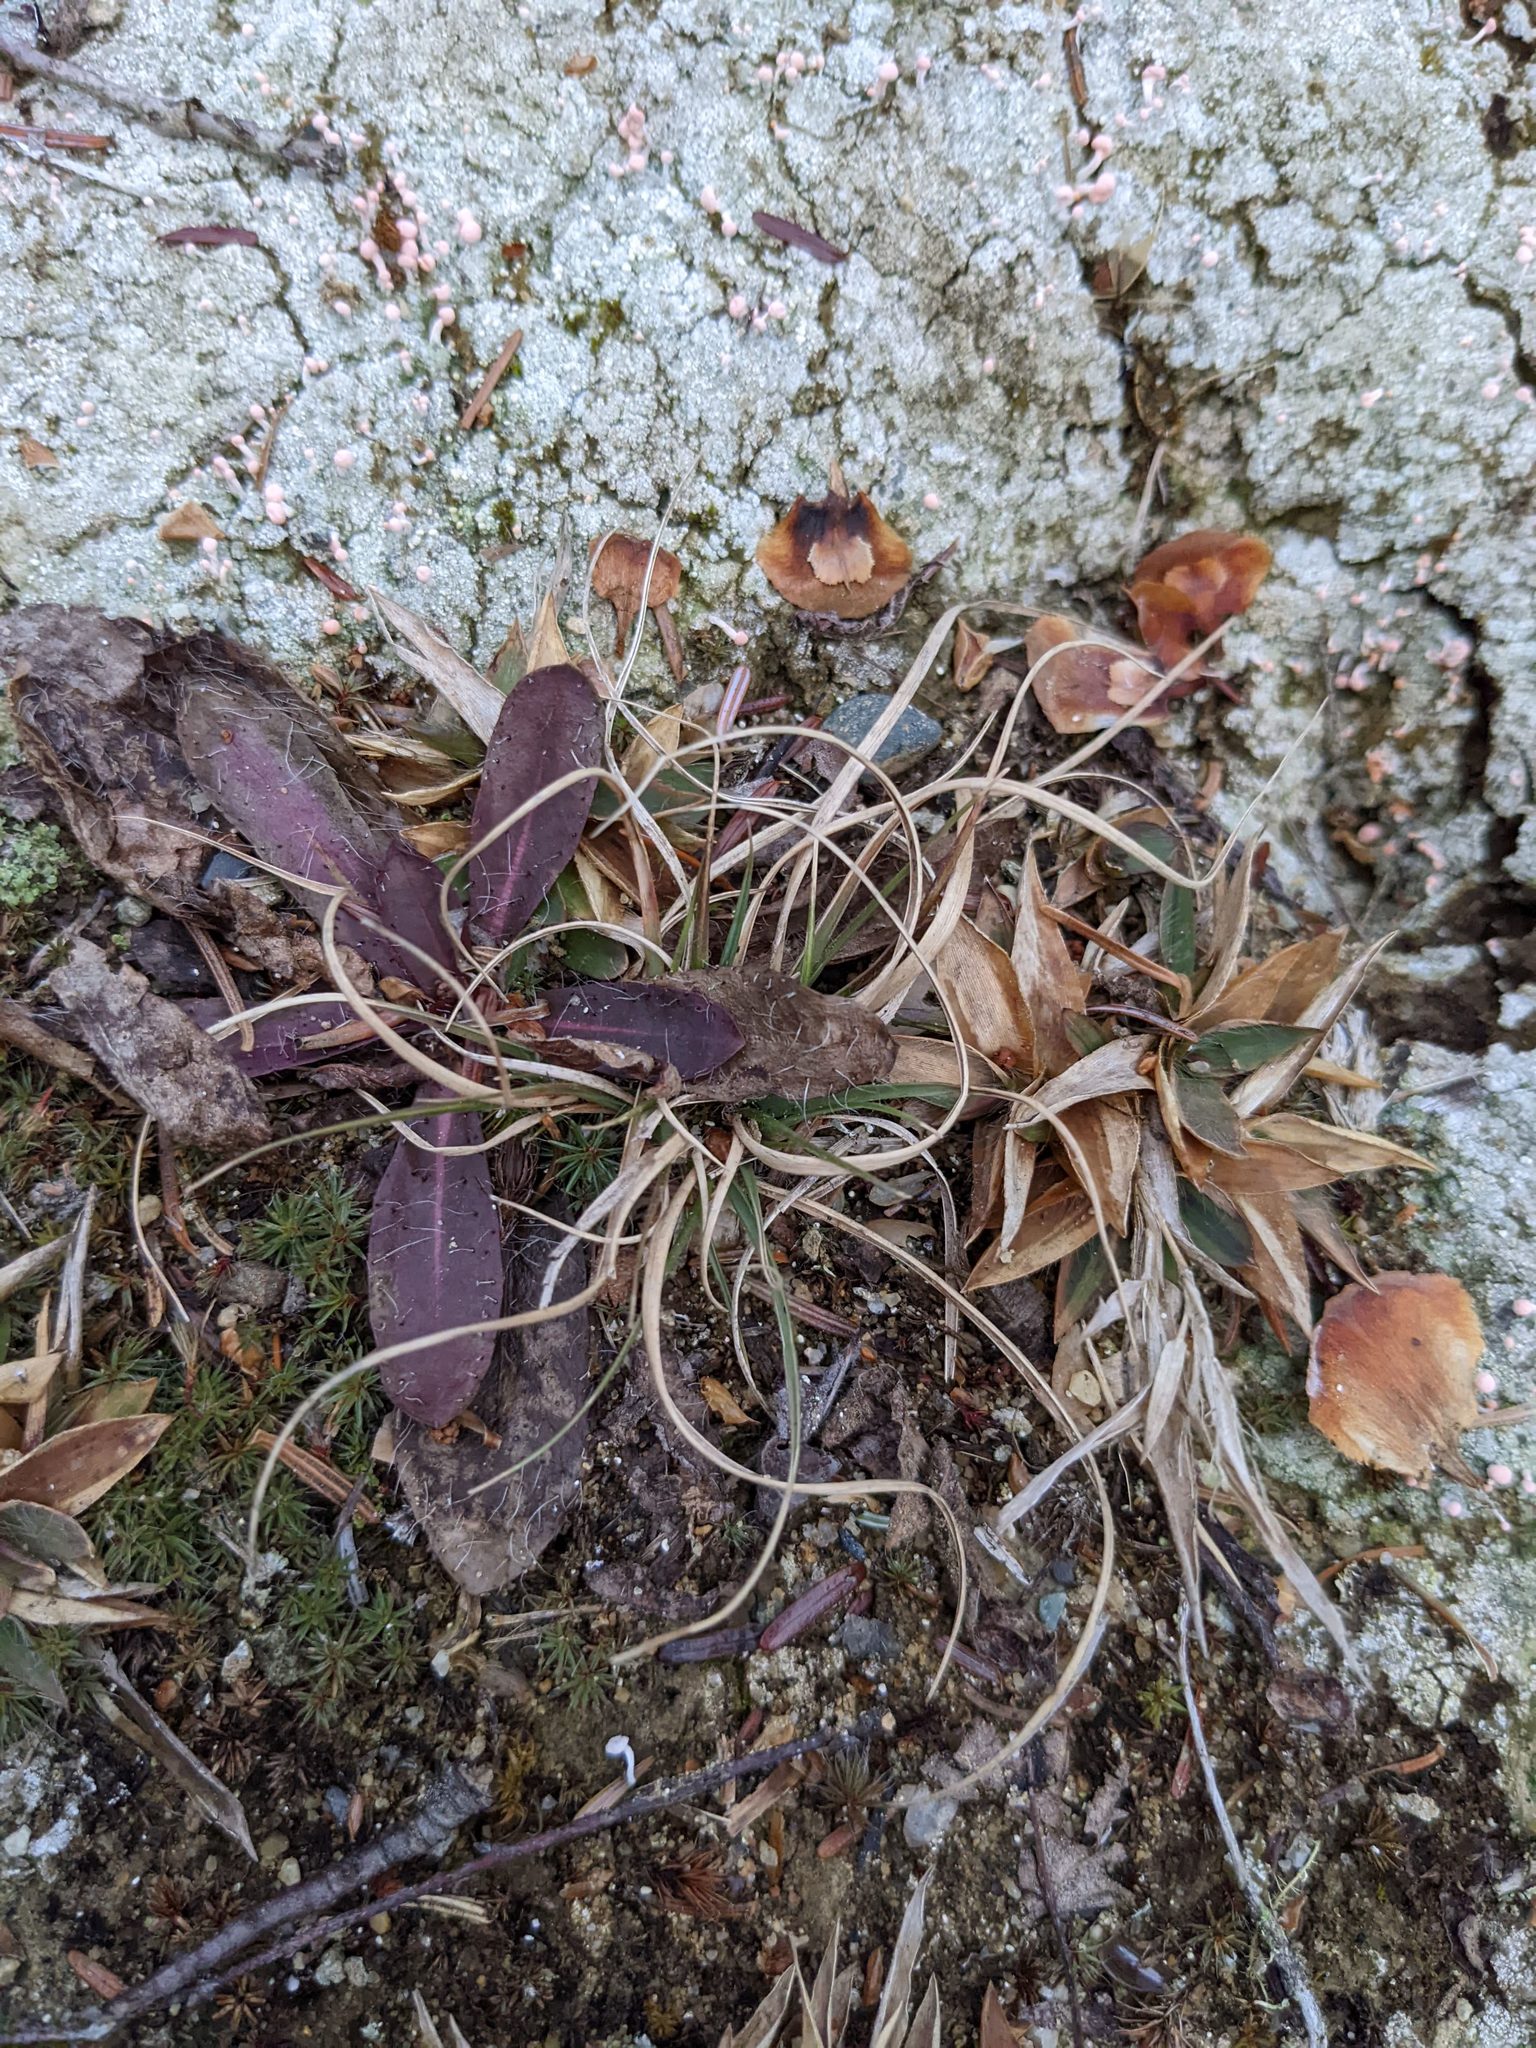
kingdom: Plantae
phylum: Tracheophyta
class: Liliopsida
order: Poales
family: Poaceae
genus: Danthonia
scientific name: Danthonia spicata
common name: Common wild oatgrass
